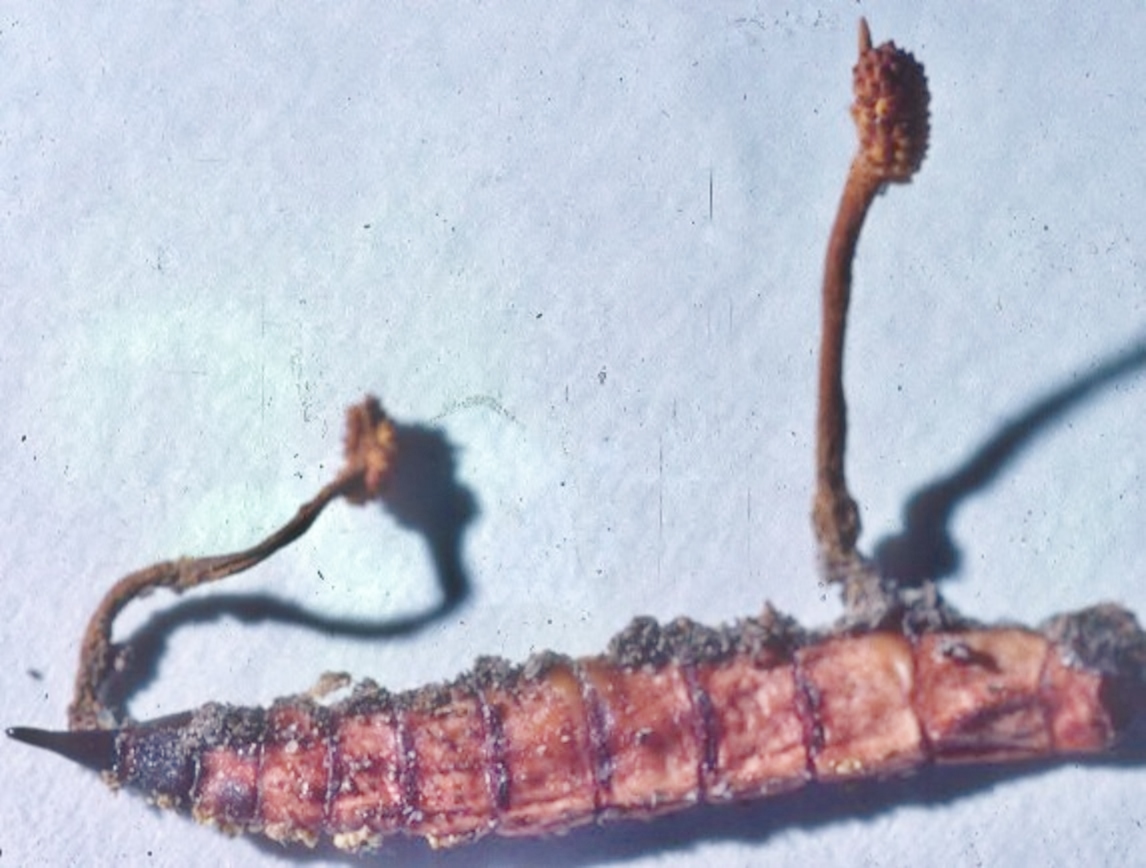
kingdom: Fungi
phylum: Ascomycota
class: Sordariomycetes
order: Hypocreales
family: Ophiocordycipitaceae
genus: Ophiocordyceps
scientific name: Ophiocordyceps variabilis
